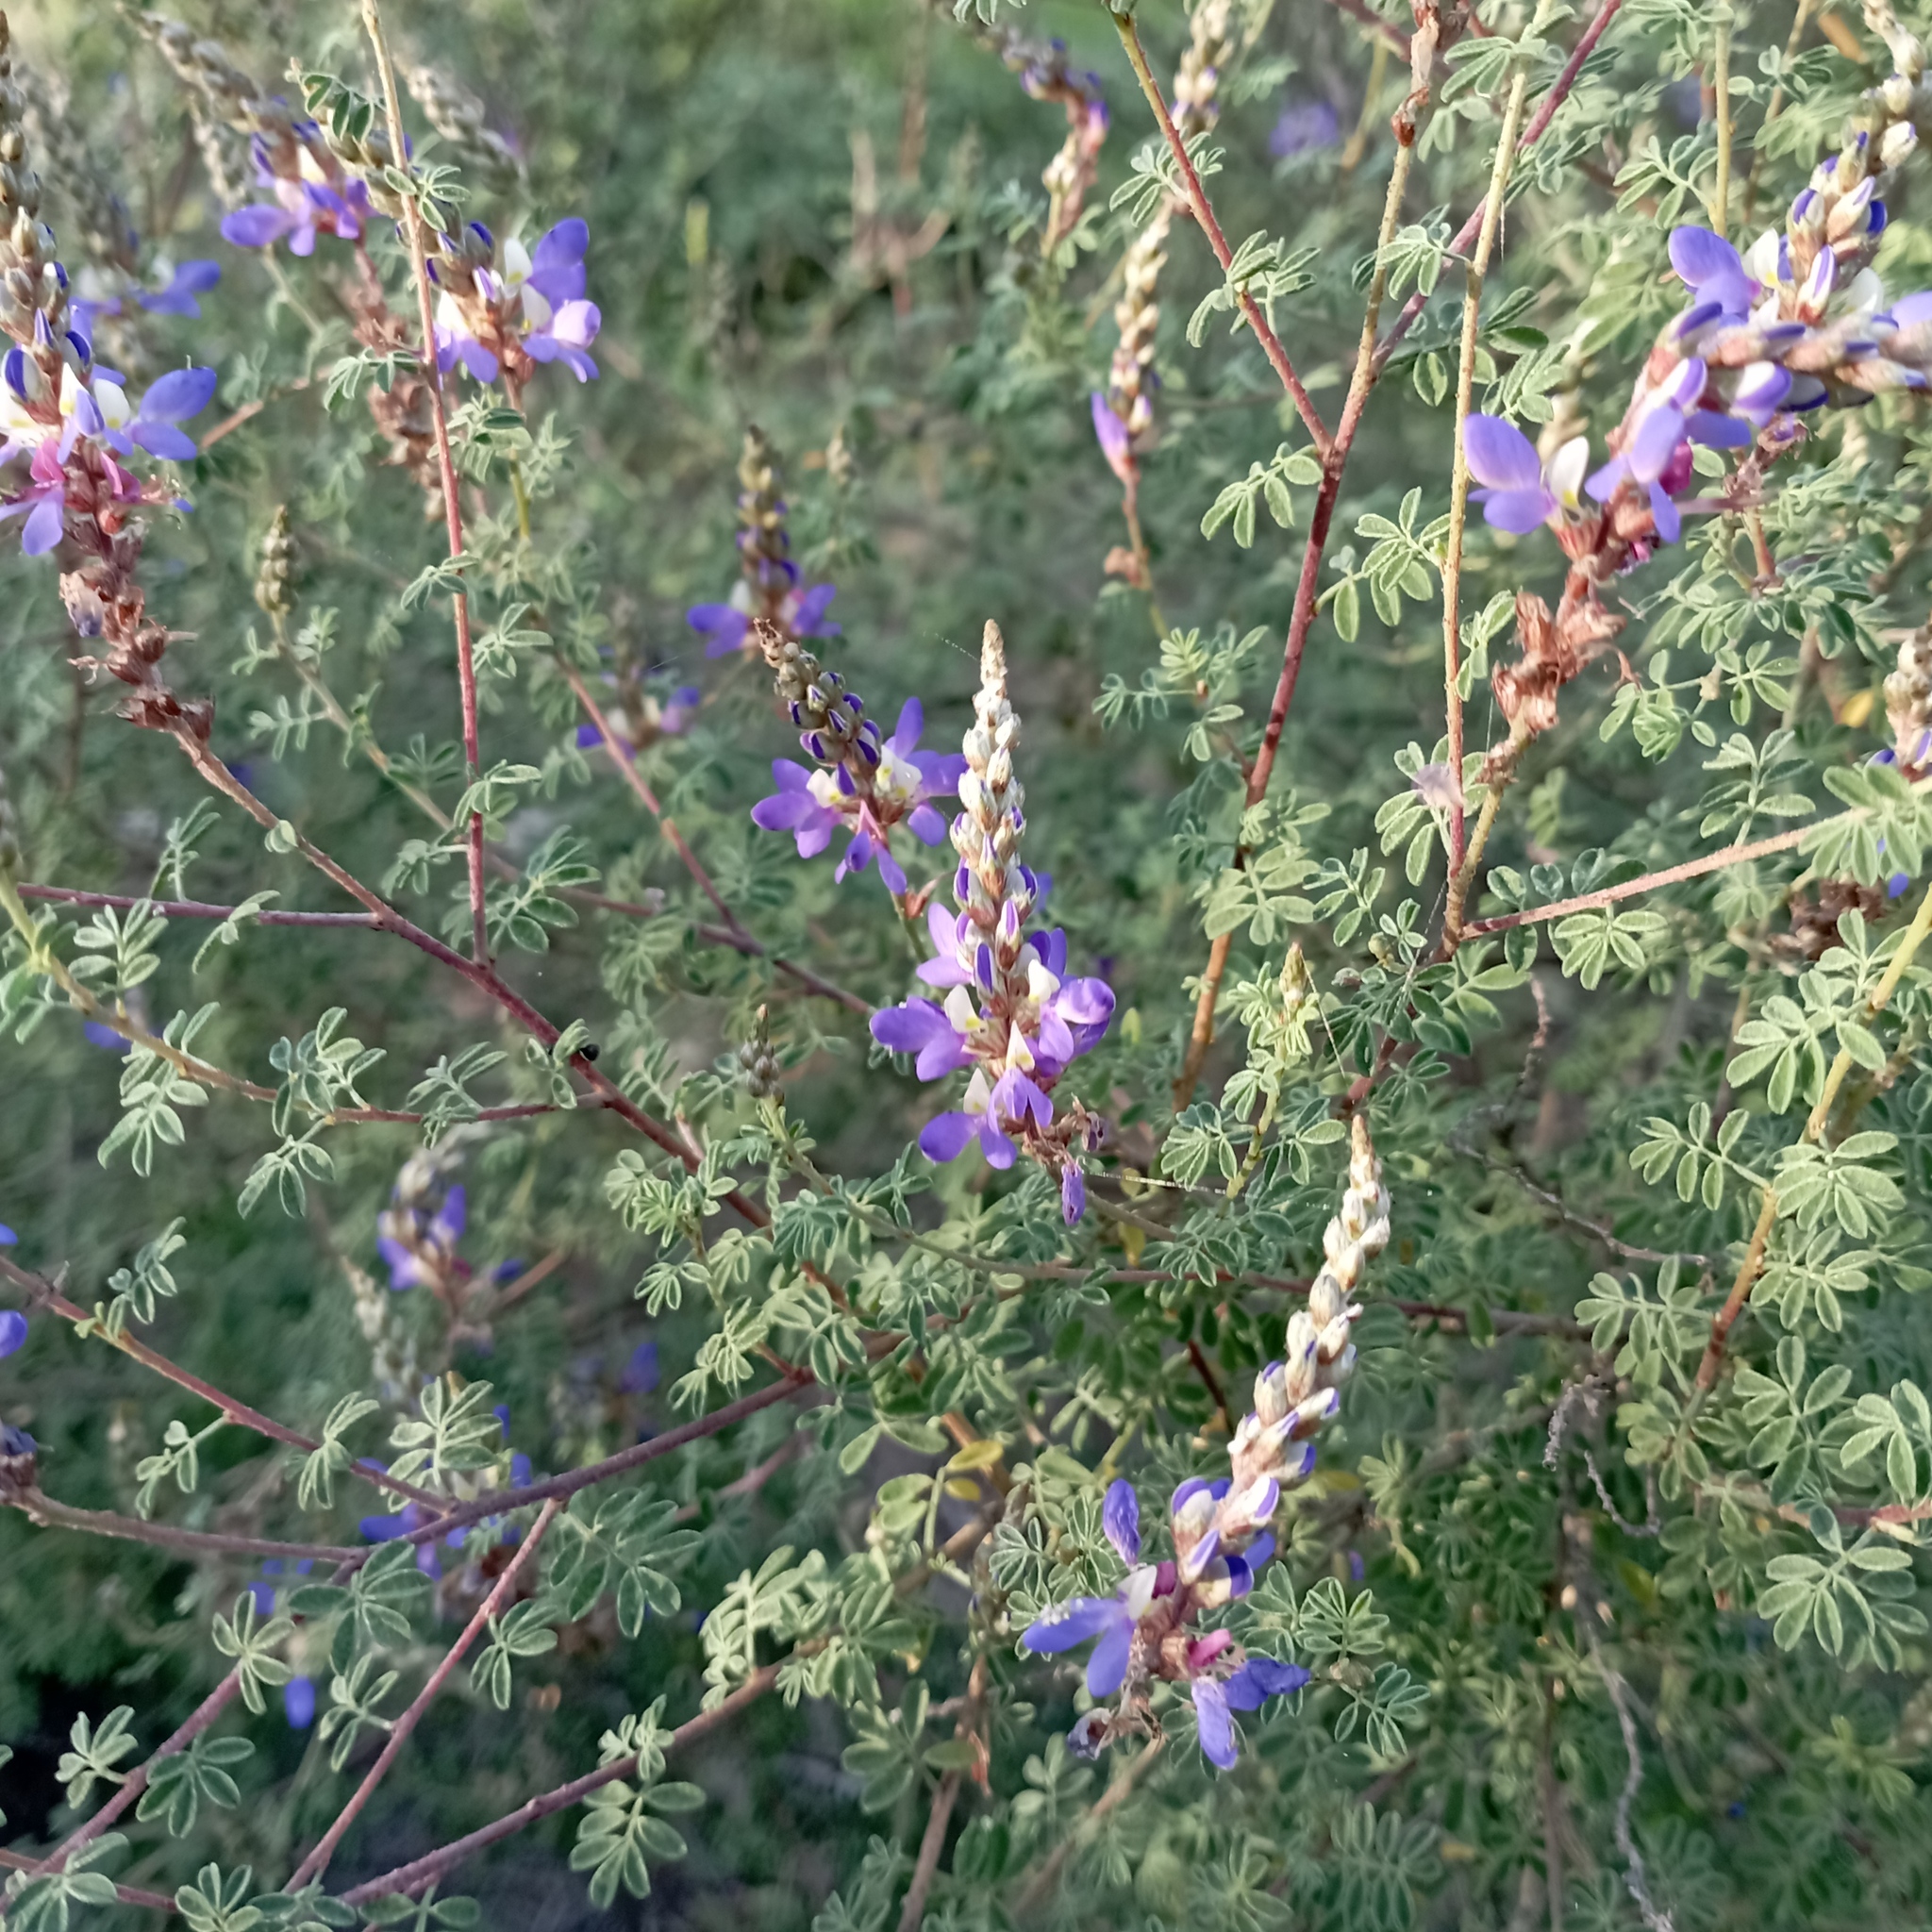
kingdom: Plantae
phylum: Tracheophyta
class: Magnoliopsida
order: Fabales
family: Fabaceae
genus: Dalea
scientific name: Dalea bicolor
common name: Silver prairie-clover
